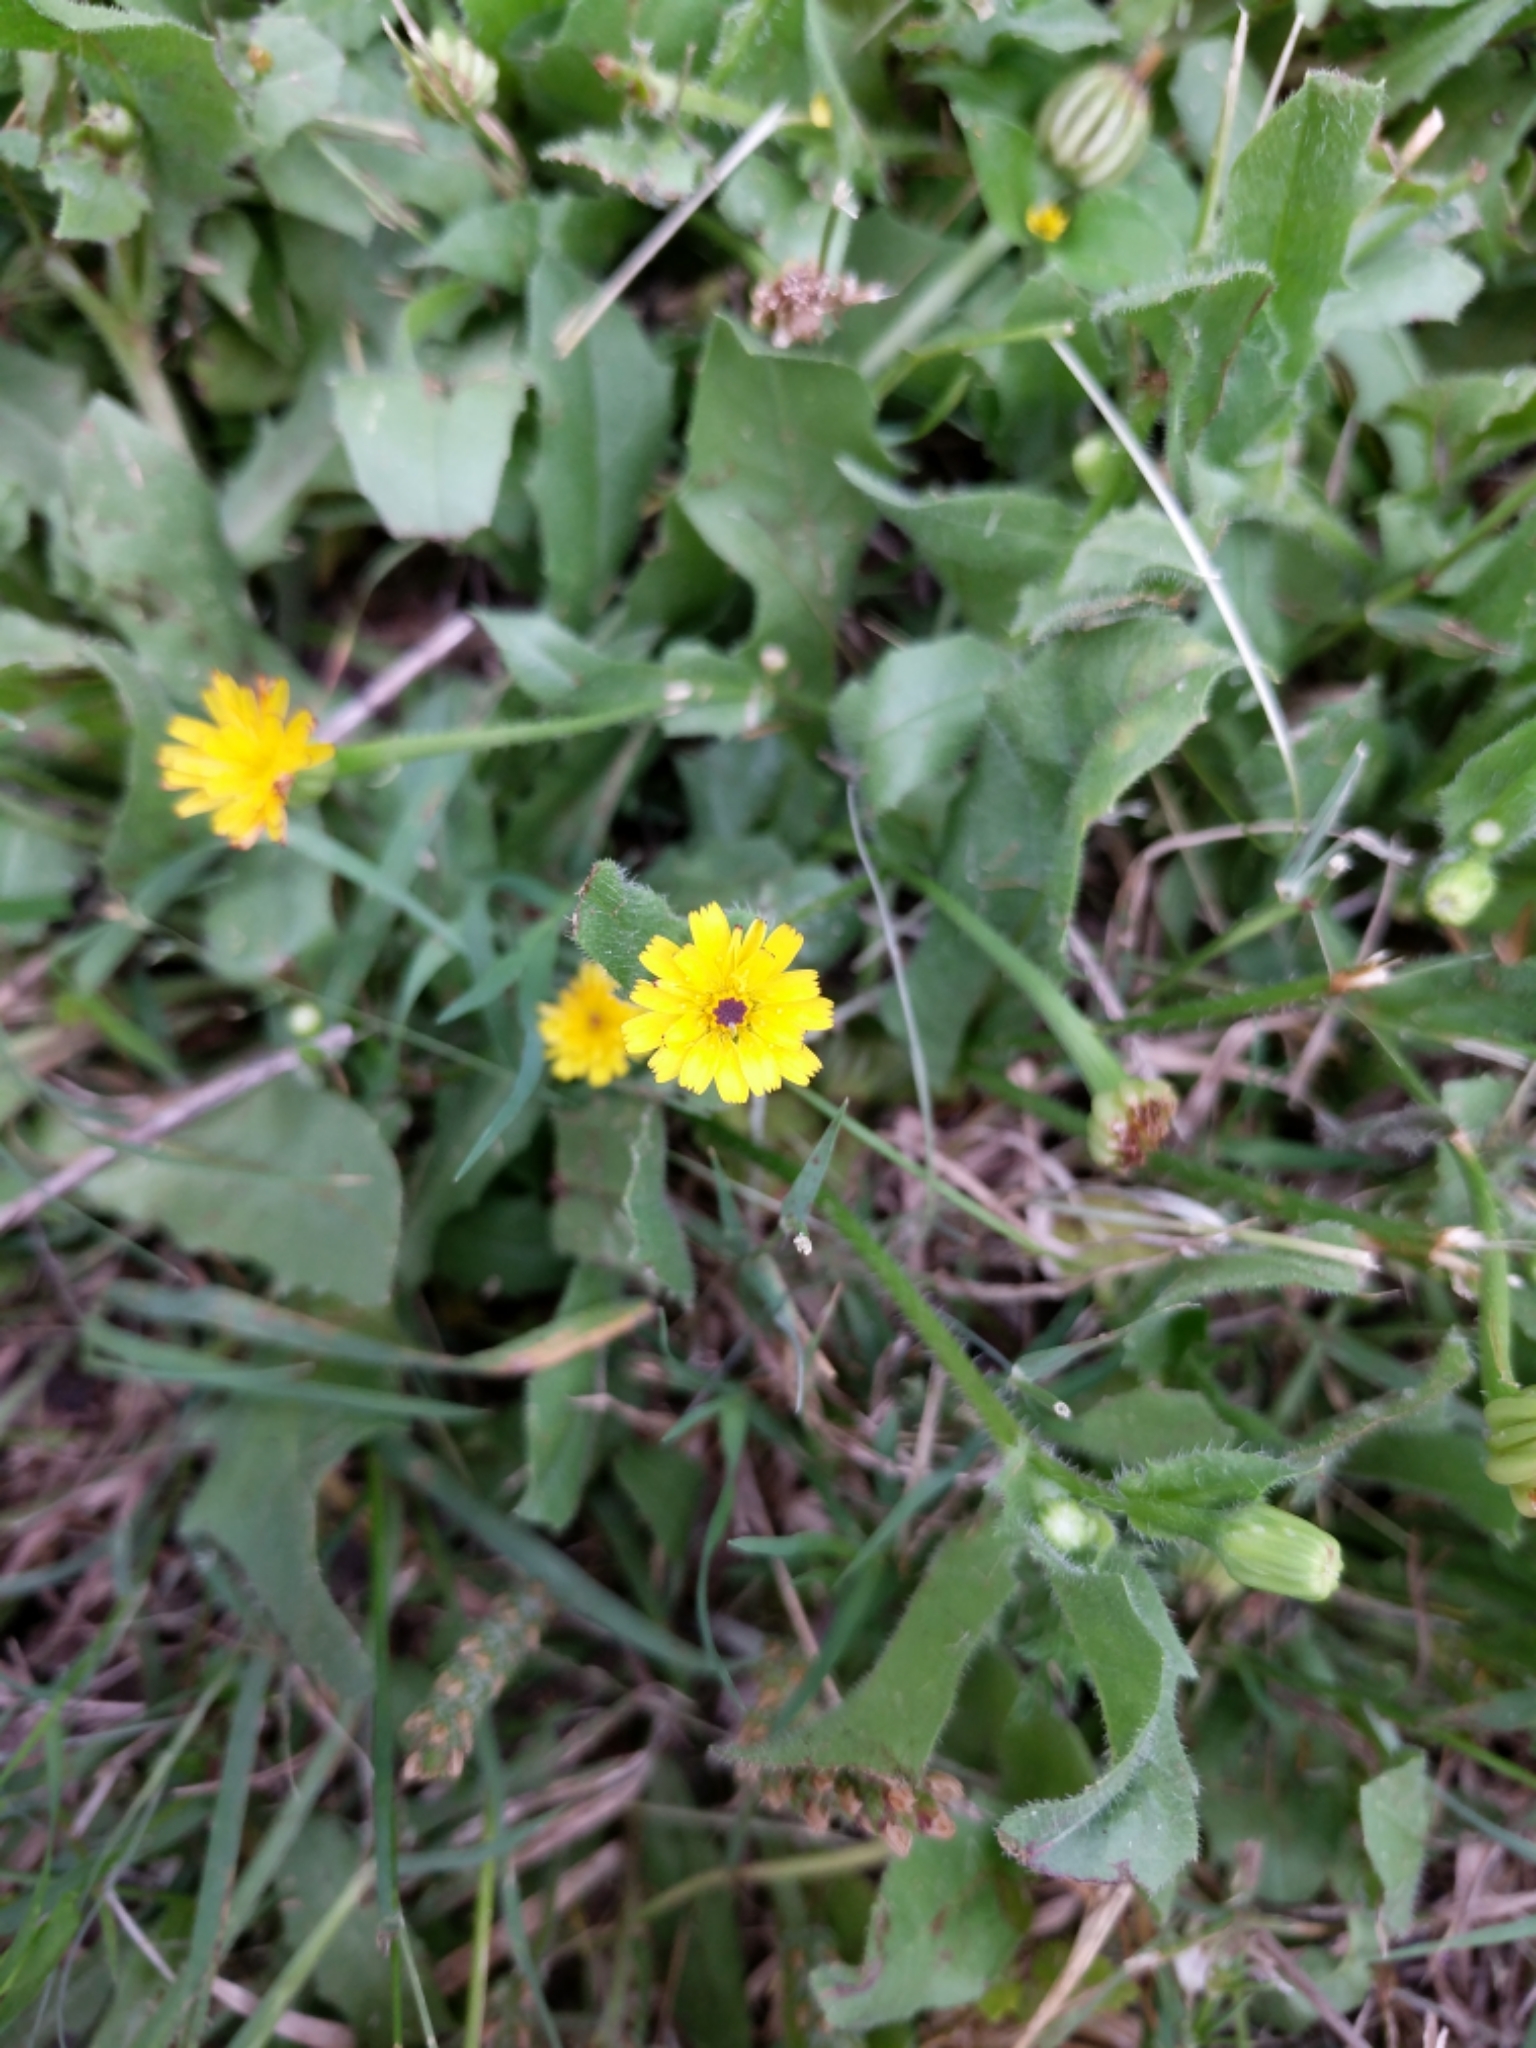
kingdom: Plantae
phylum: Tracheophyta
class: Magnoliopsida
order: Asterales
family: Asteraceae
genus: Hedypnois
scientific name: Hedypnois rhagadioloides
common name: Cretan weed
